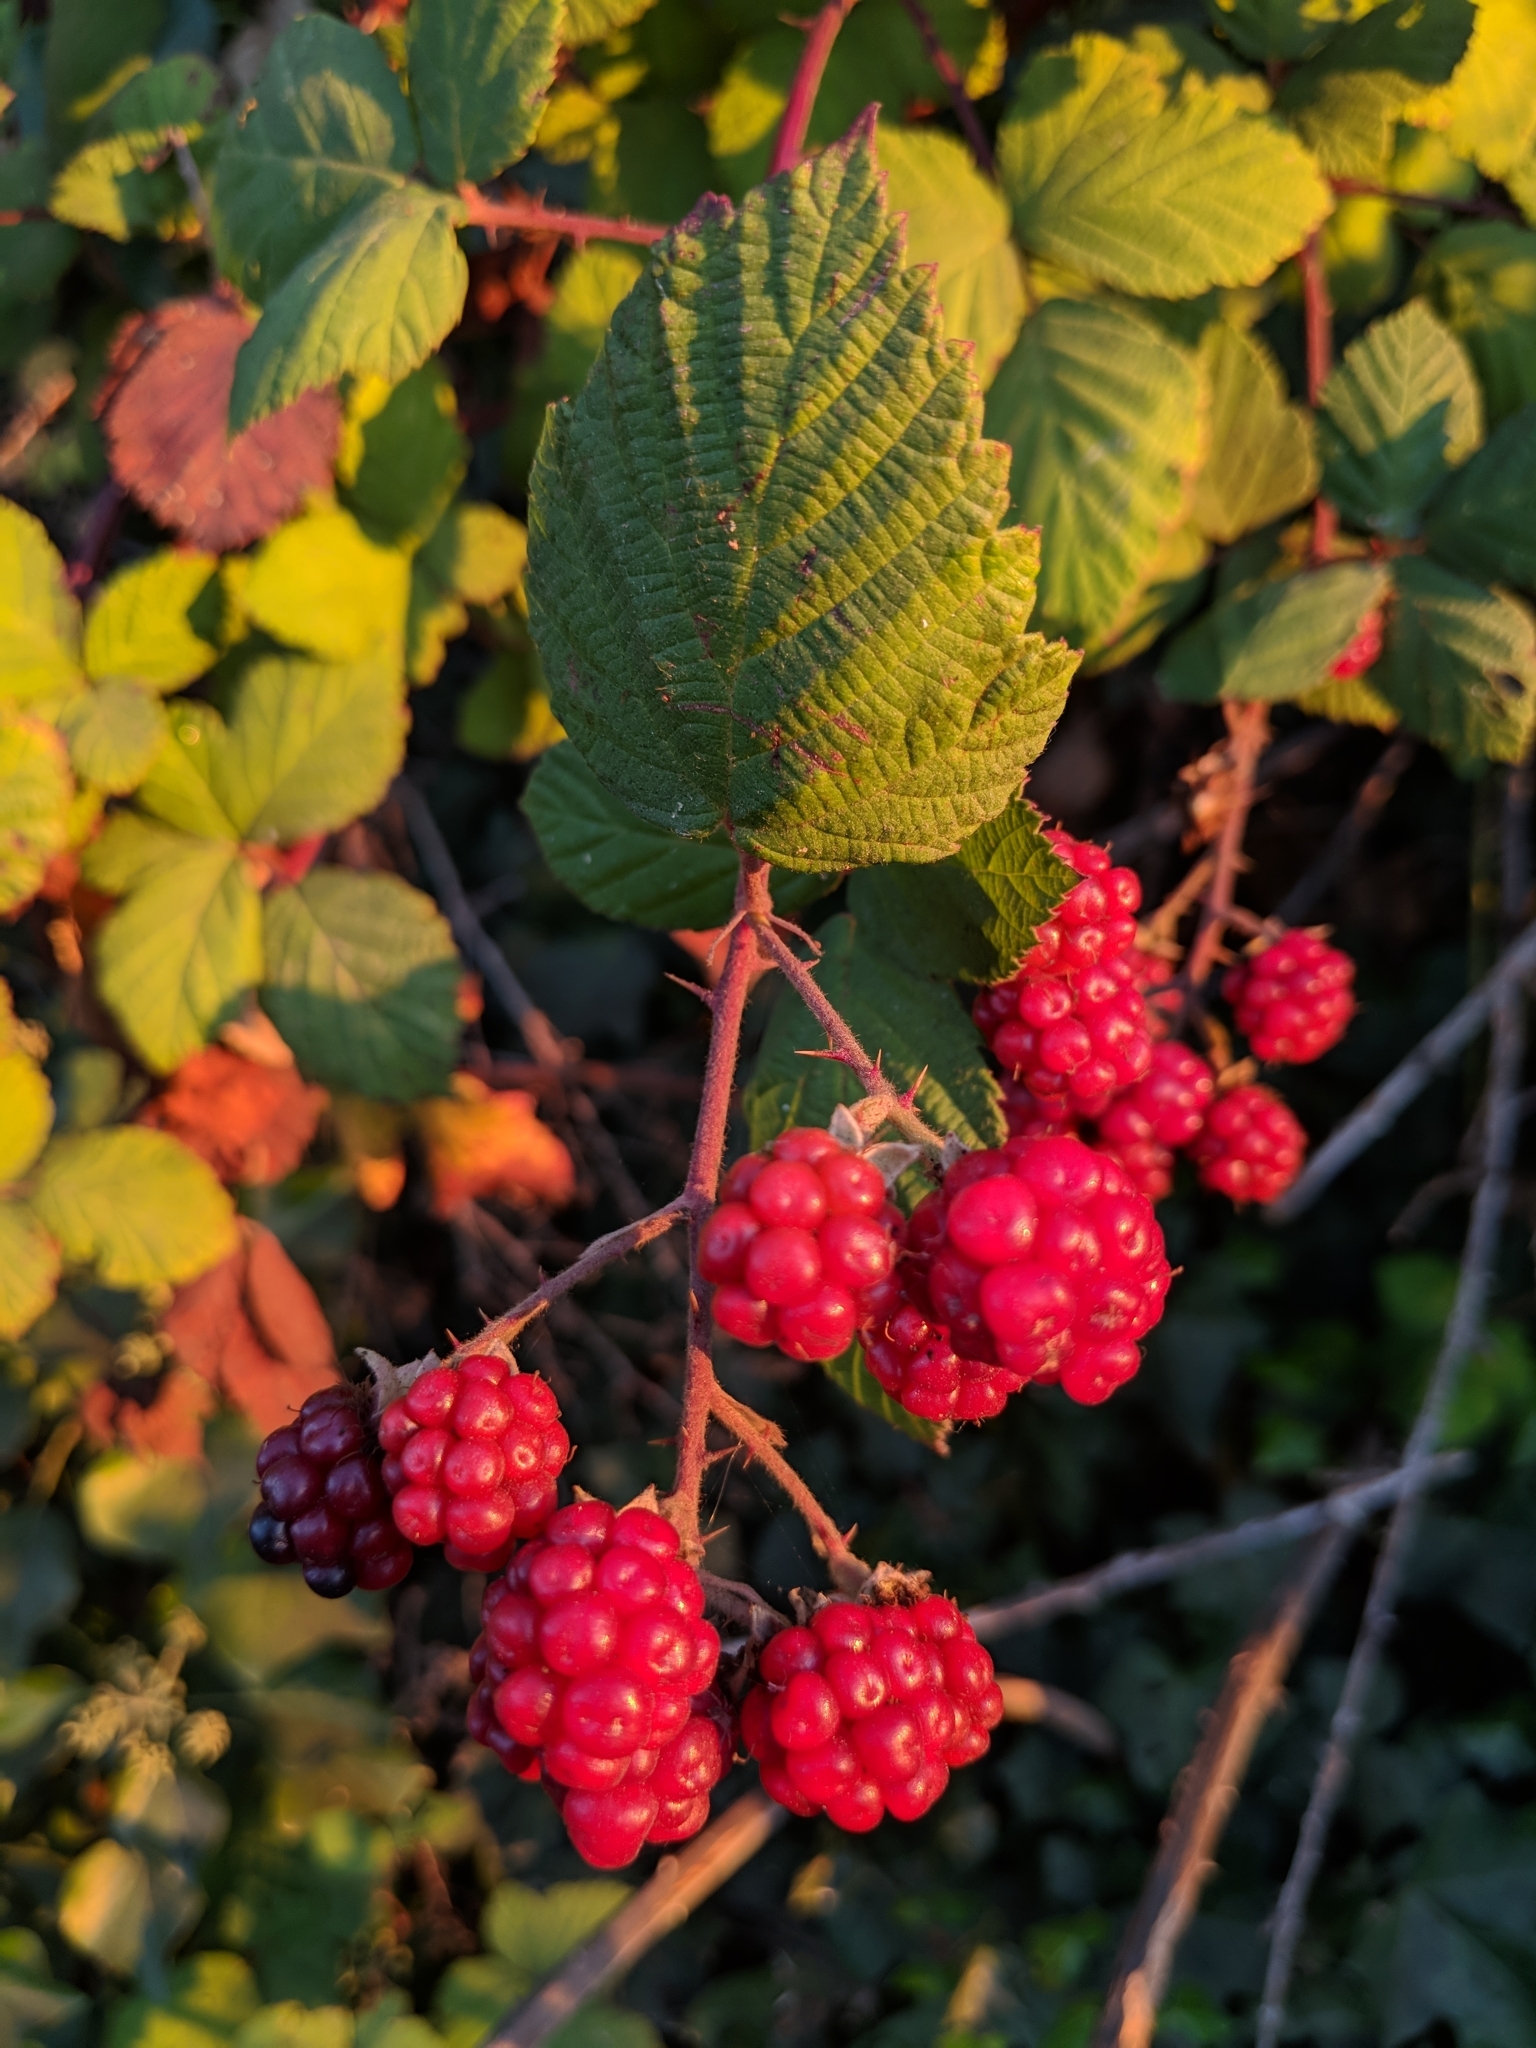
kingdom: Plantae
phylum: Tracheophyta
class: Magnoliopsida
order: Rosales
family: Rosaceae
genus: Rubus
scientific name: Rubus armeniacus
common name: Himalayan blackberry
